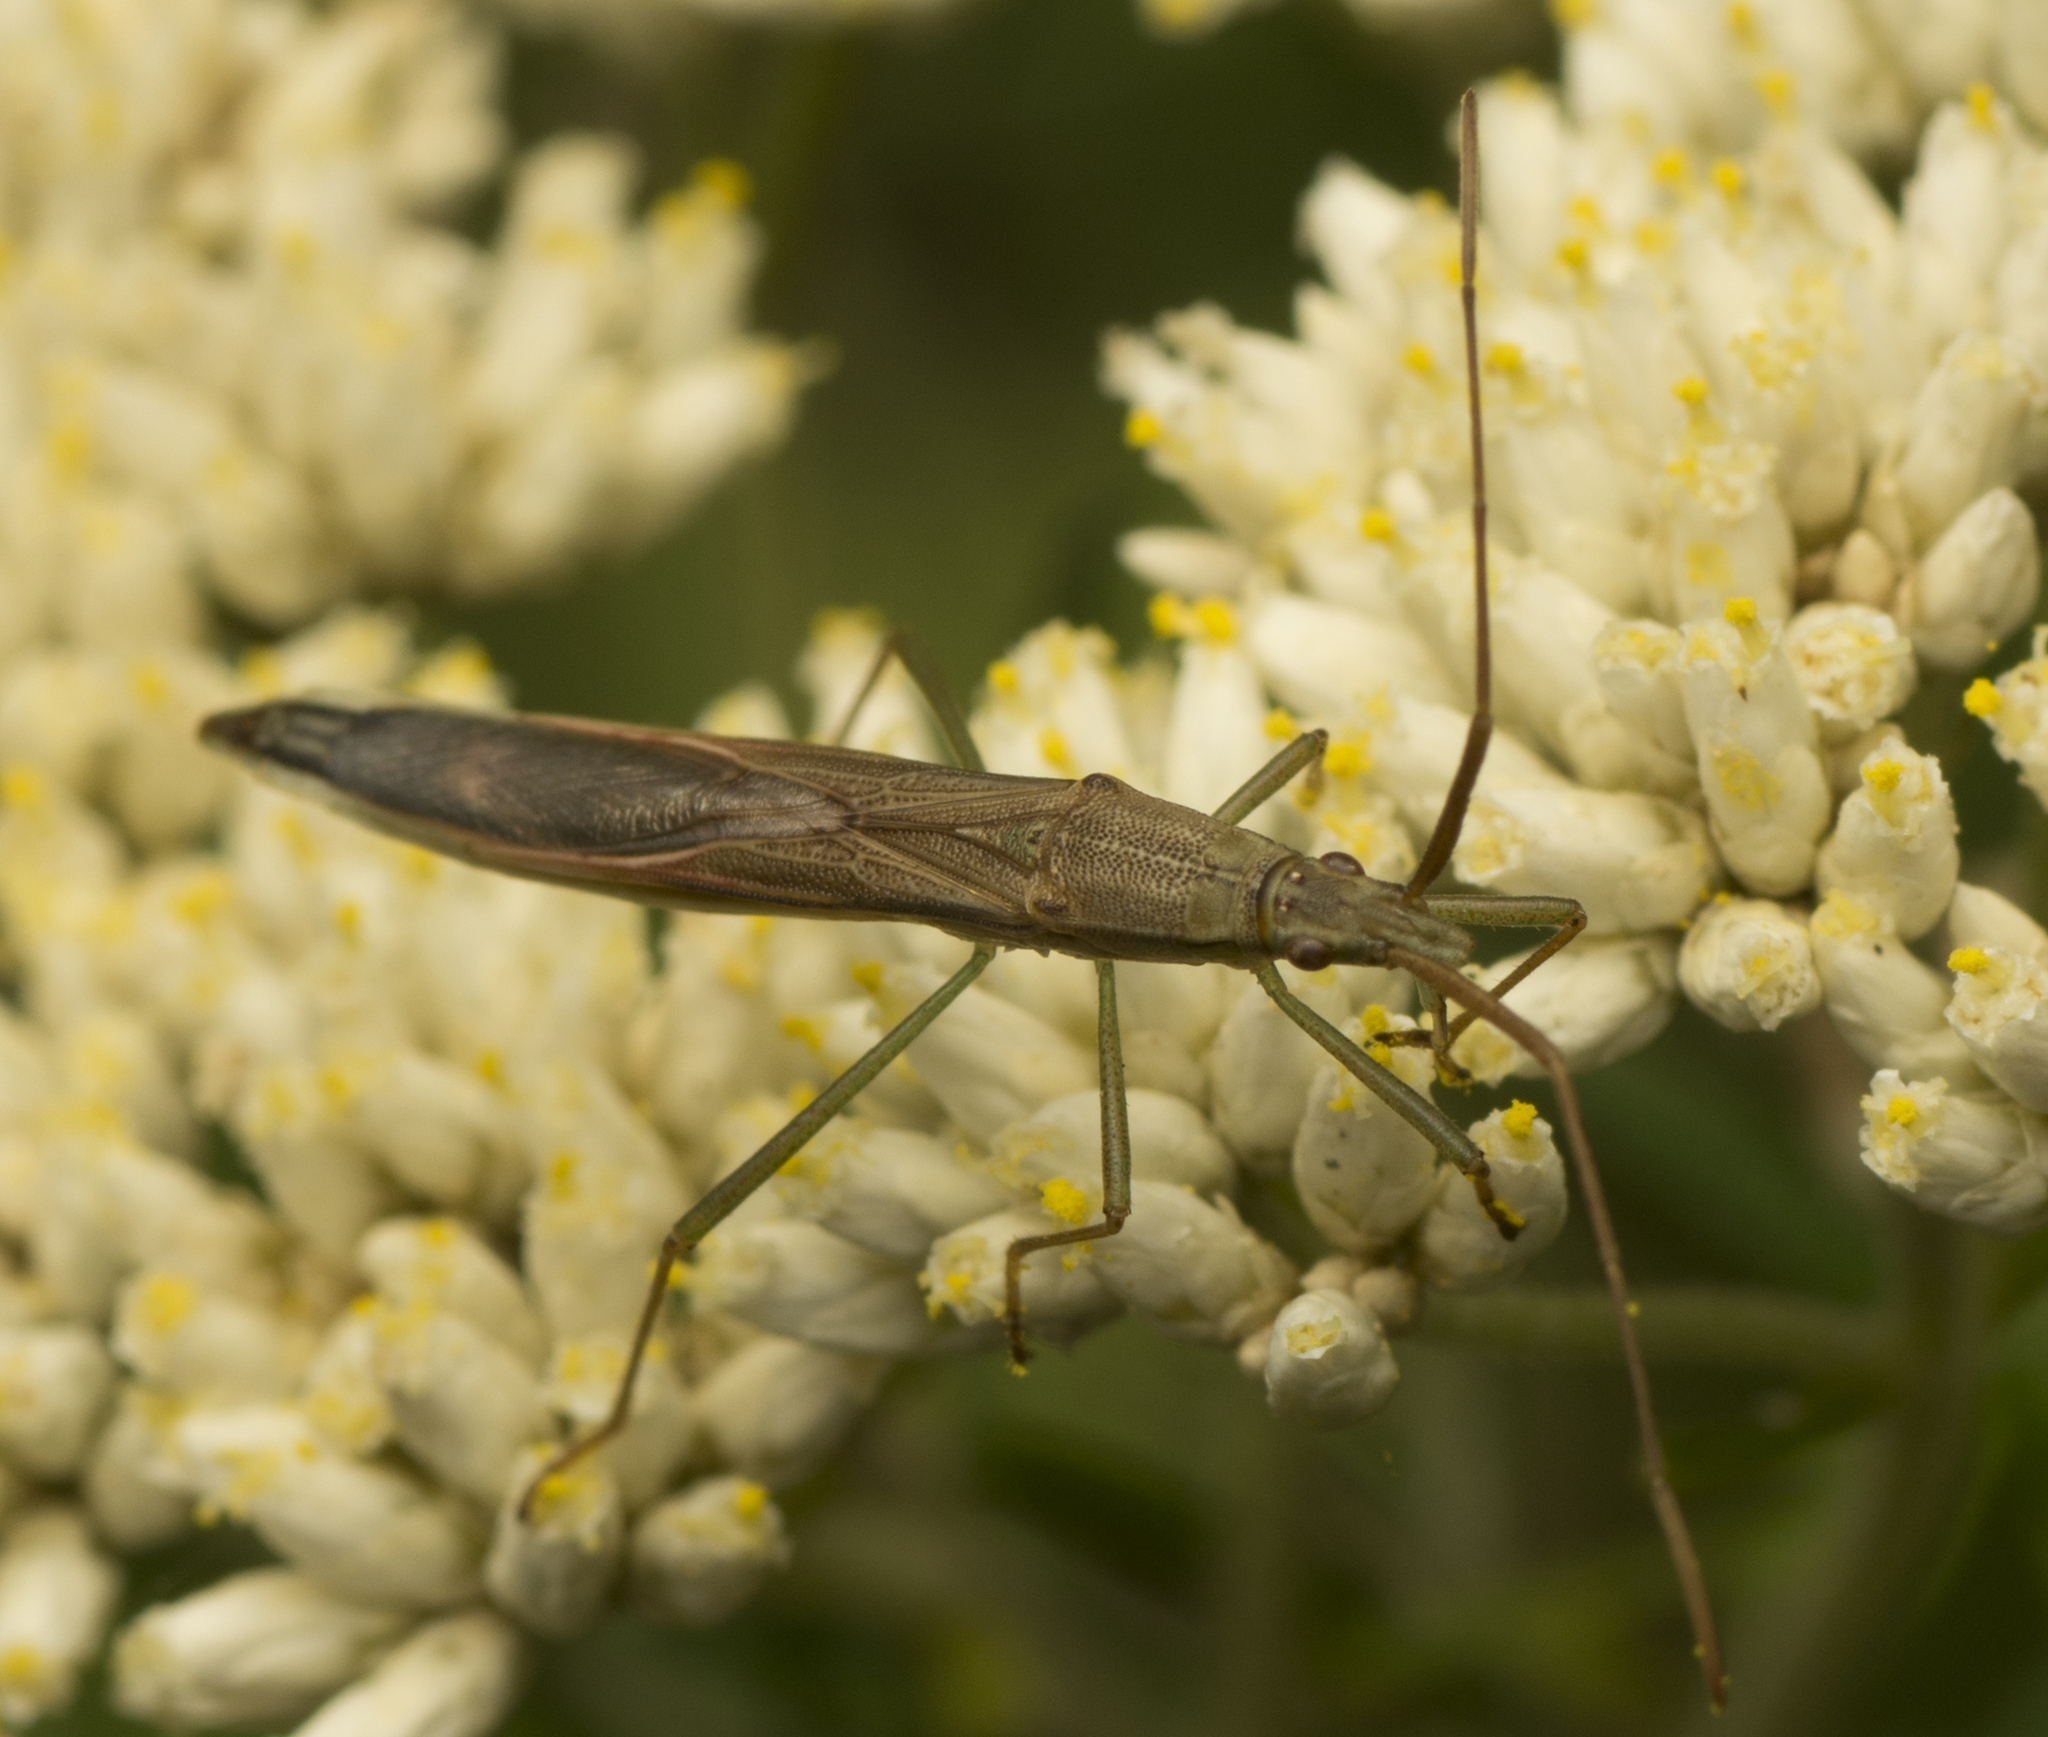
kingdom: Animalia
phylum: Arthropoda
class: Insecta
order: Hemiptera
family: Alydidae
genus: Mutusca
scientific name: Mutusca brevicornis
